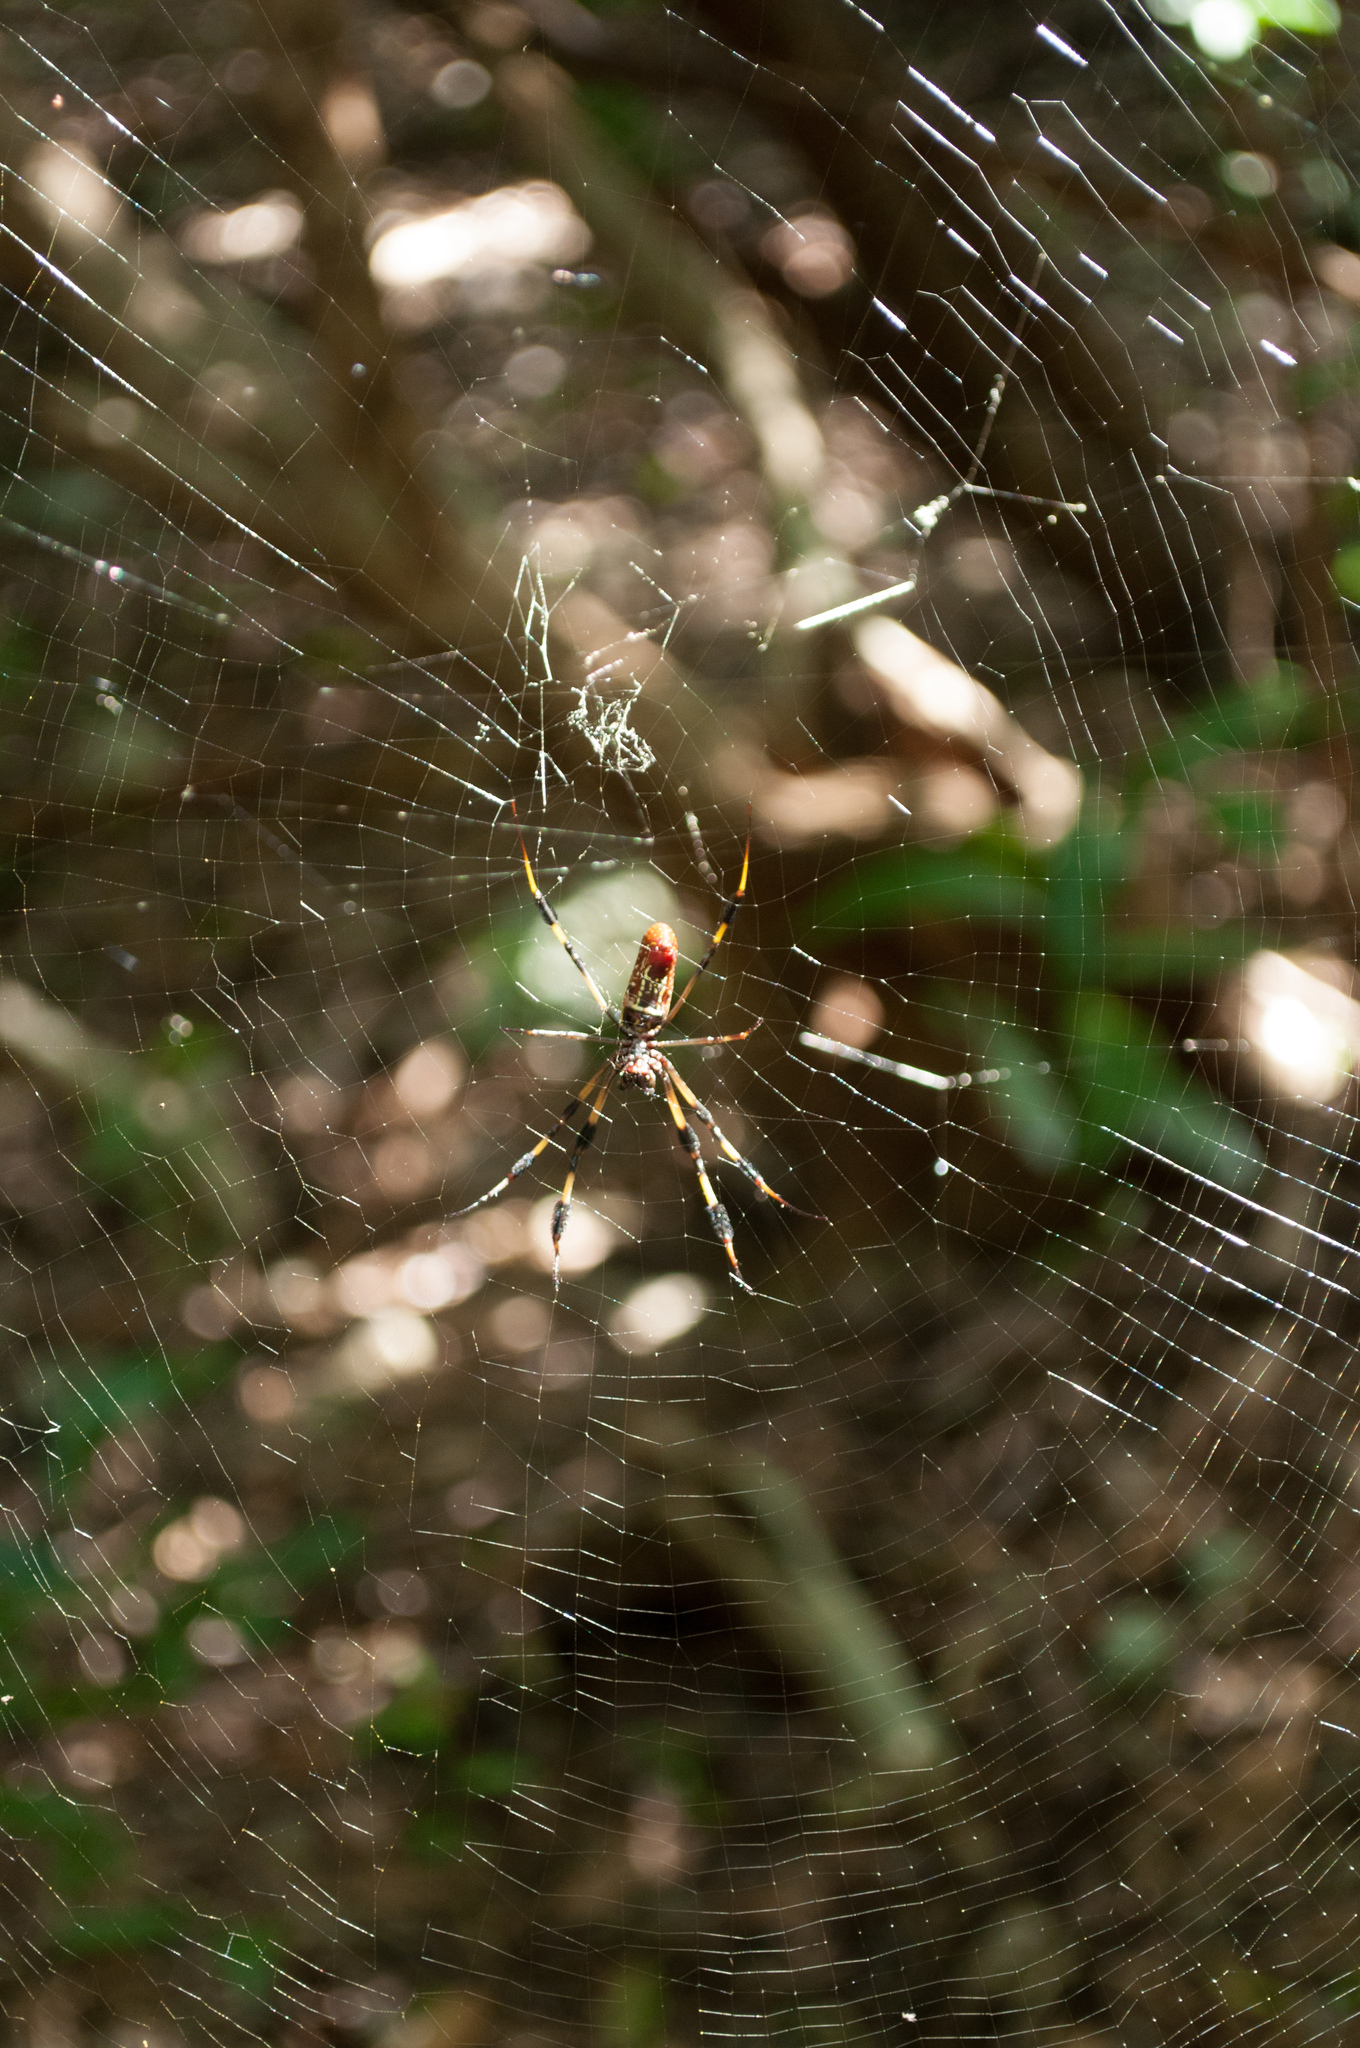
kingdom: Animalia
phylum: Arthropoda
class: Arachnida
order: Araneae
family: Araneidae
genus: Trichonephila
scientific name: Trichonephila clavipes
